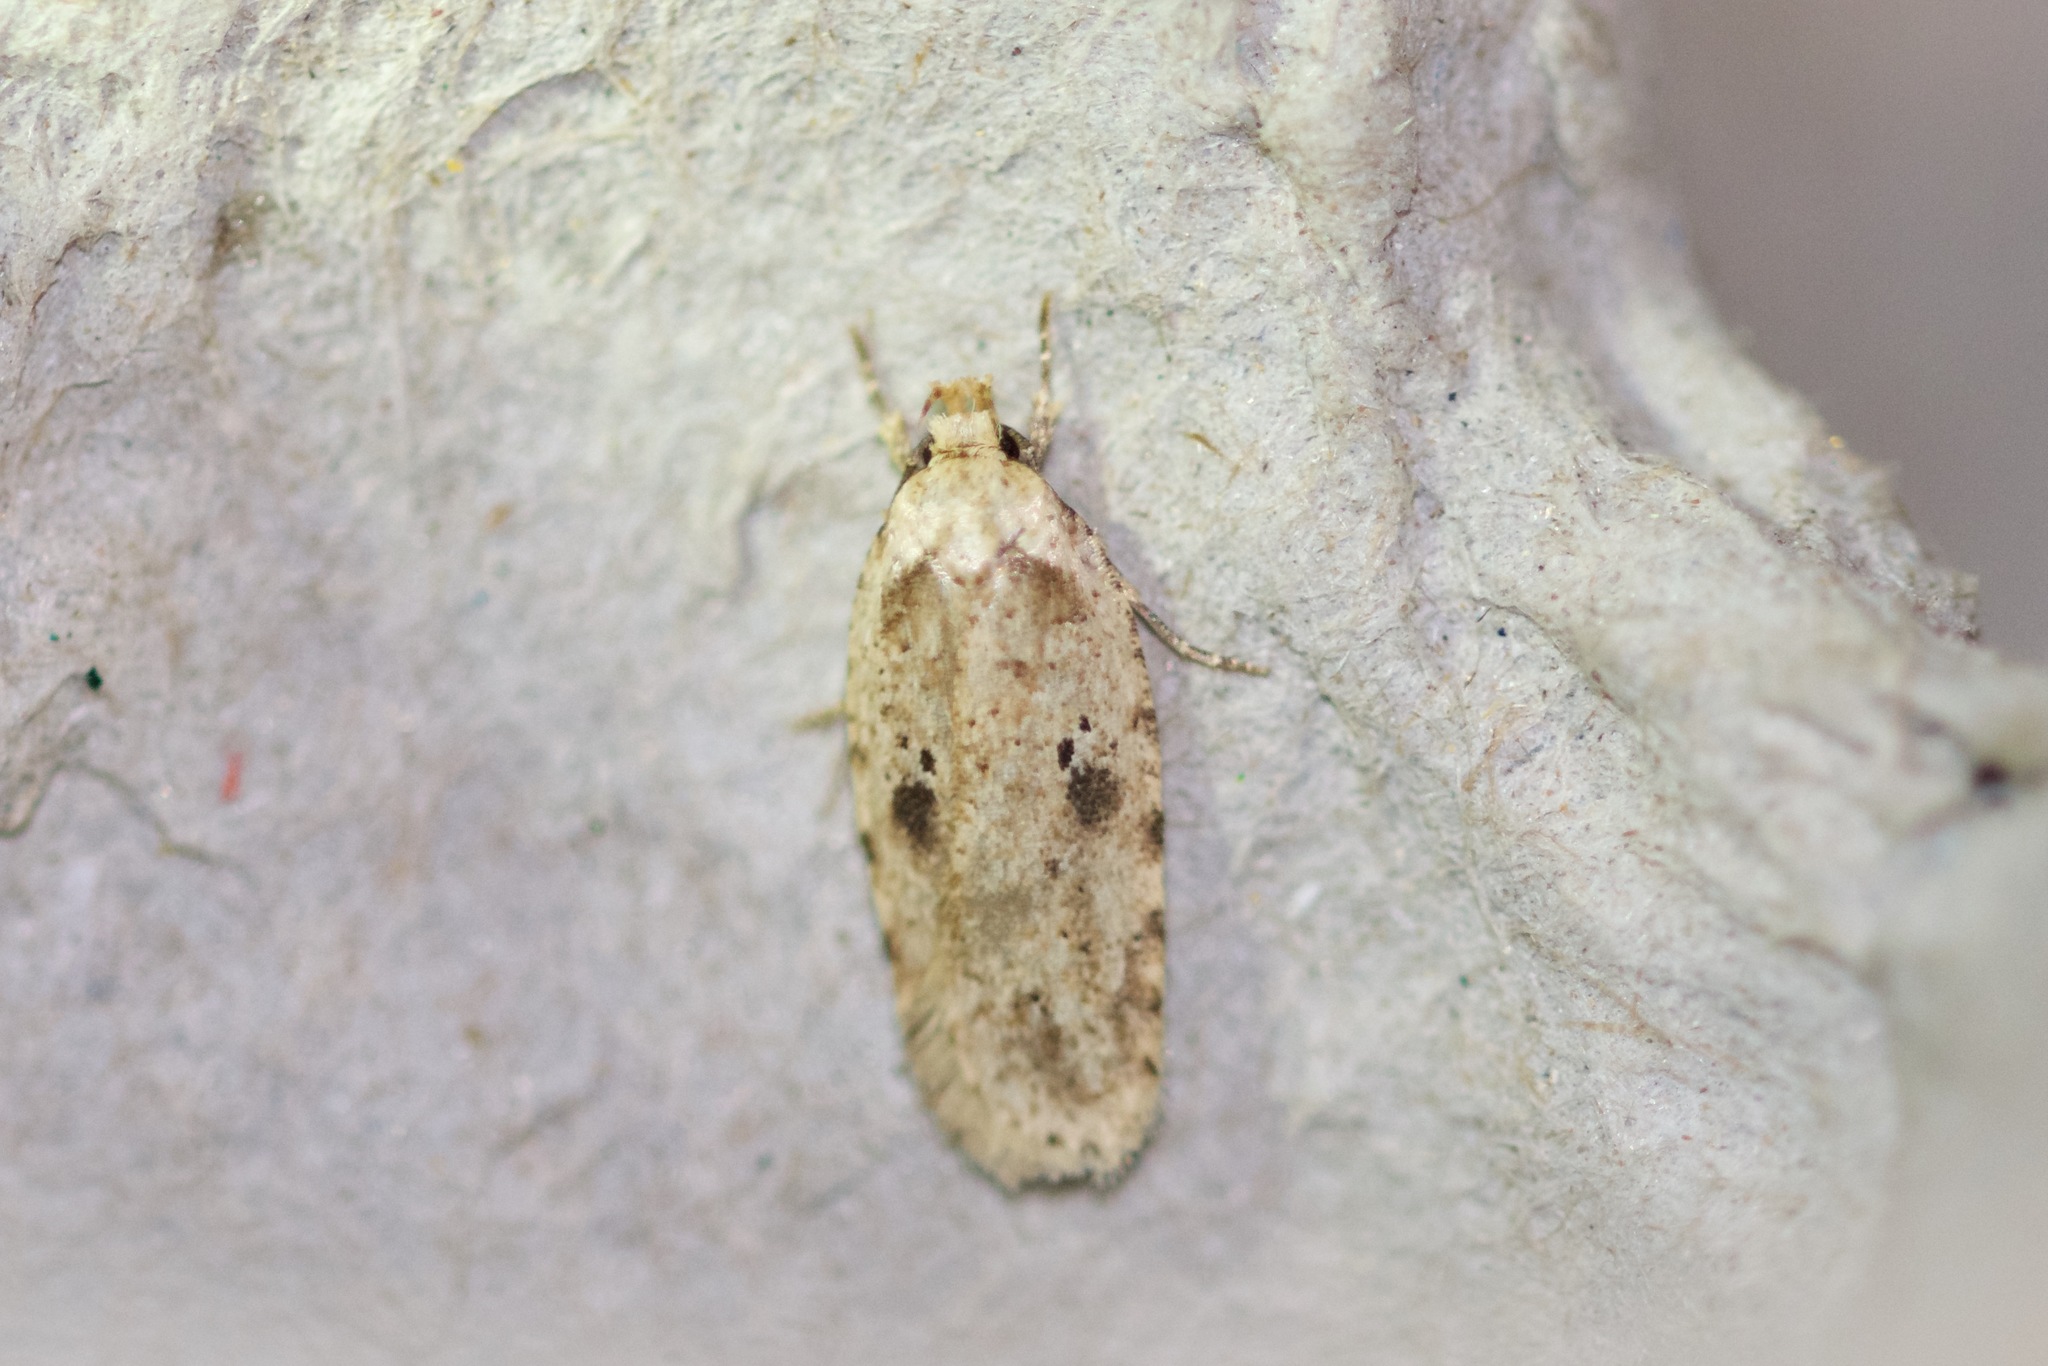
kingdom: Animalia
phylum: Arthropoda
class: Insecta
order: Lepidoptera
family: Depressariidae
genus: Agonopterix
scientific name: Agonopterix canadensis
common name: Canadian agonopterix moth
